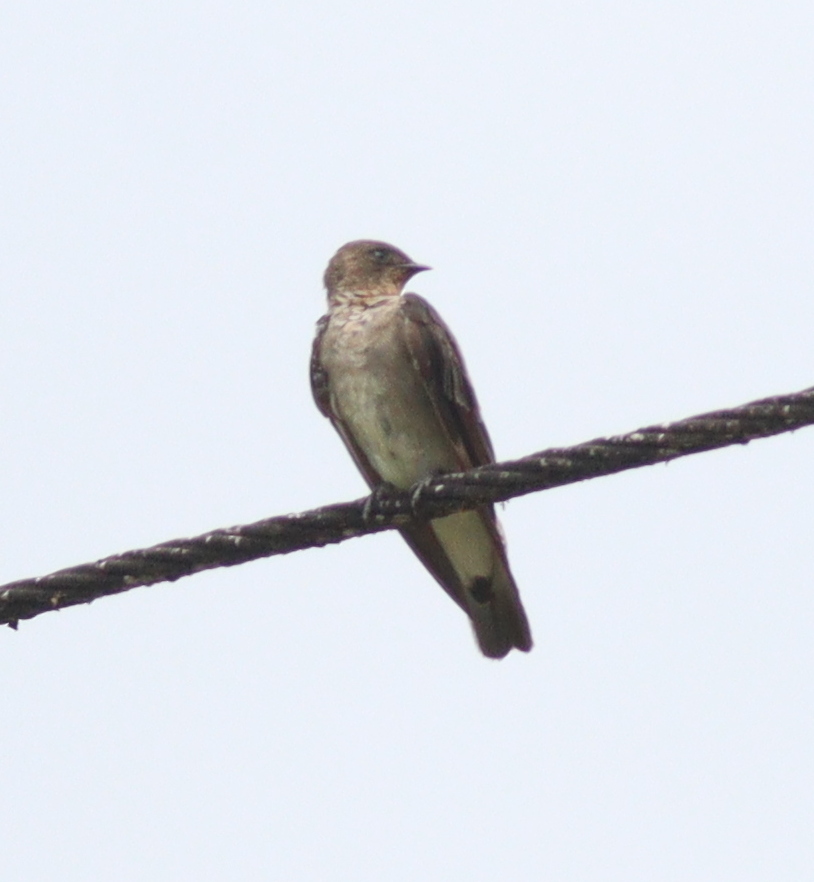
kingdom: Animalia
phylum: Chordata
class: Aves
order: Passeriformes
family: Hirundinidae
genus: Stelgidopteryx
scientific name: Stelgidopteryx ruficollis
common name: Southern rough-winged swallow
